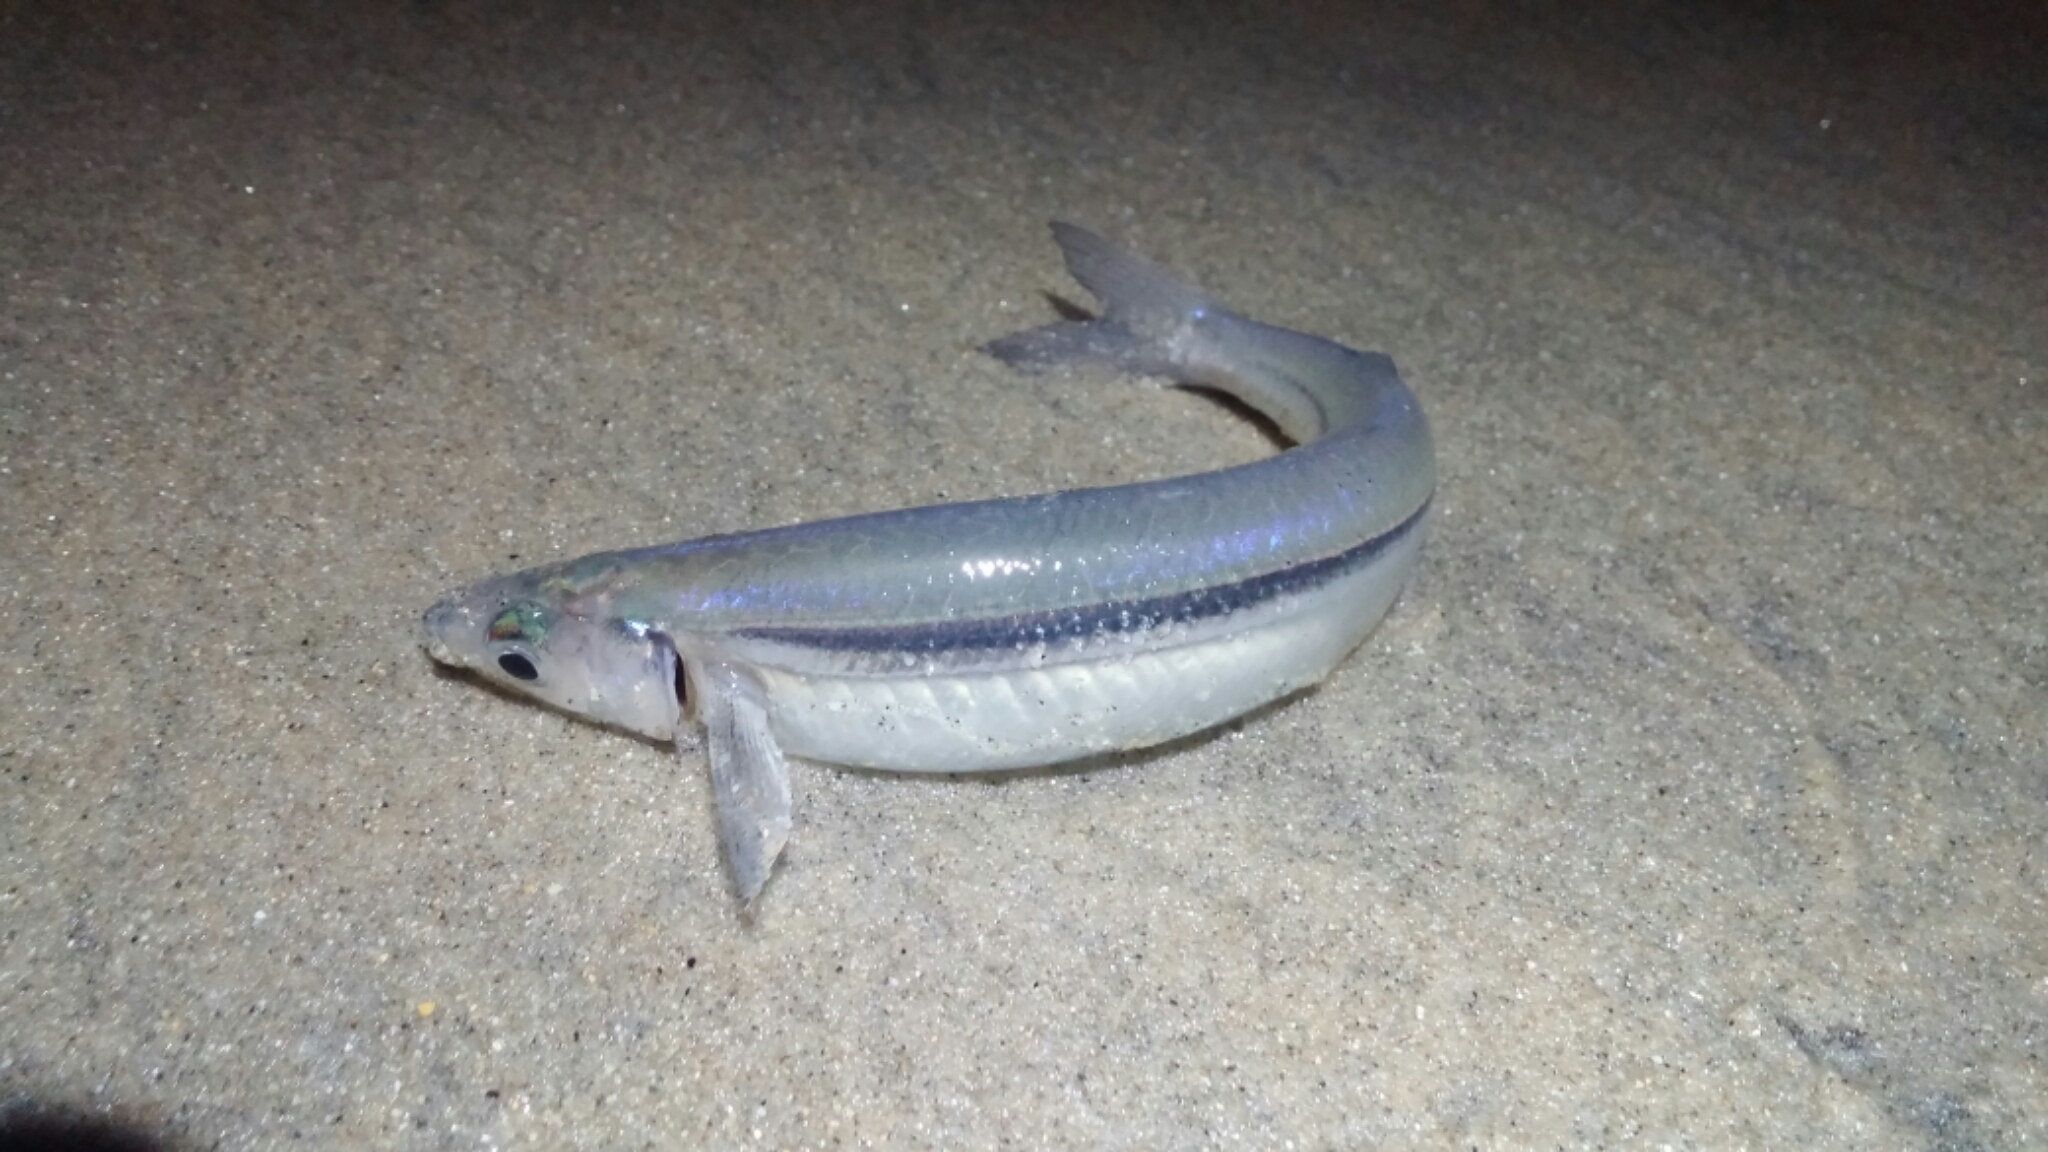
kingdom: Animalia
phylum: Chordata
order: Atheriniformes
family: Atherinopsidae
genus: Leuresthes
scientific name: Leuresthes tenuis
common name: California grunion
